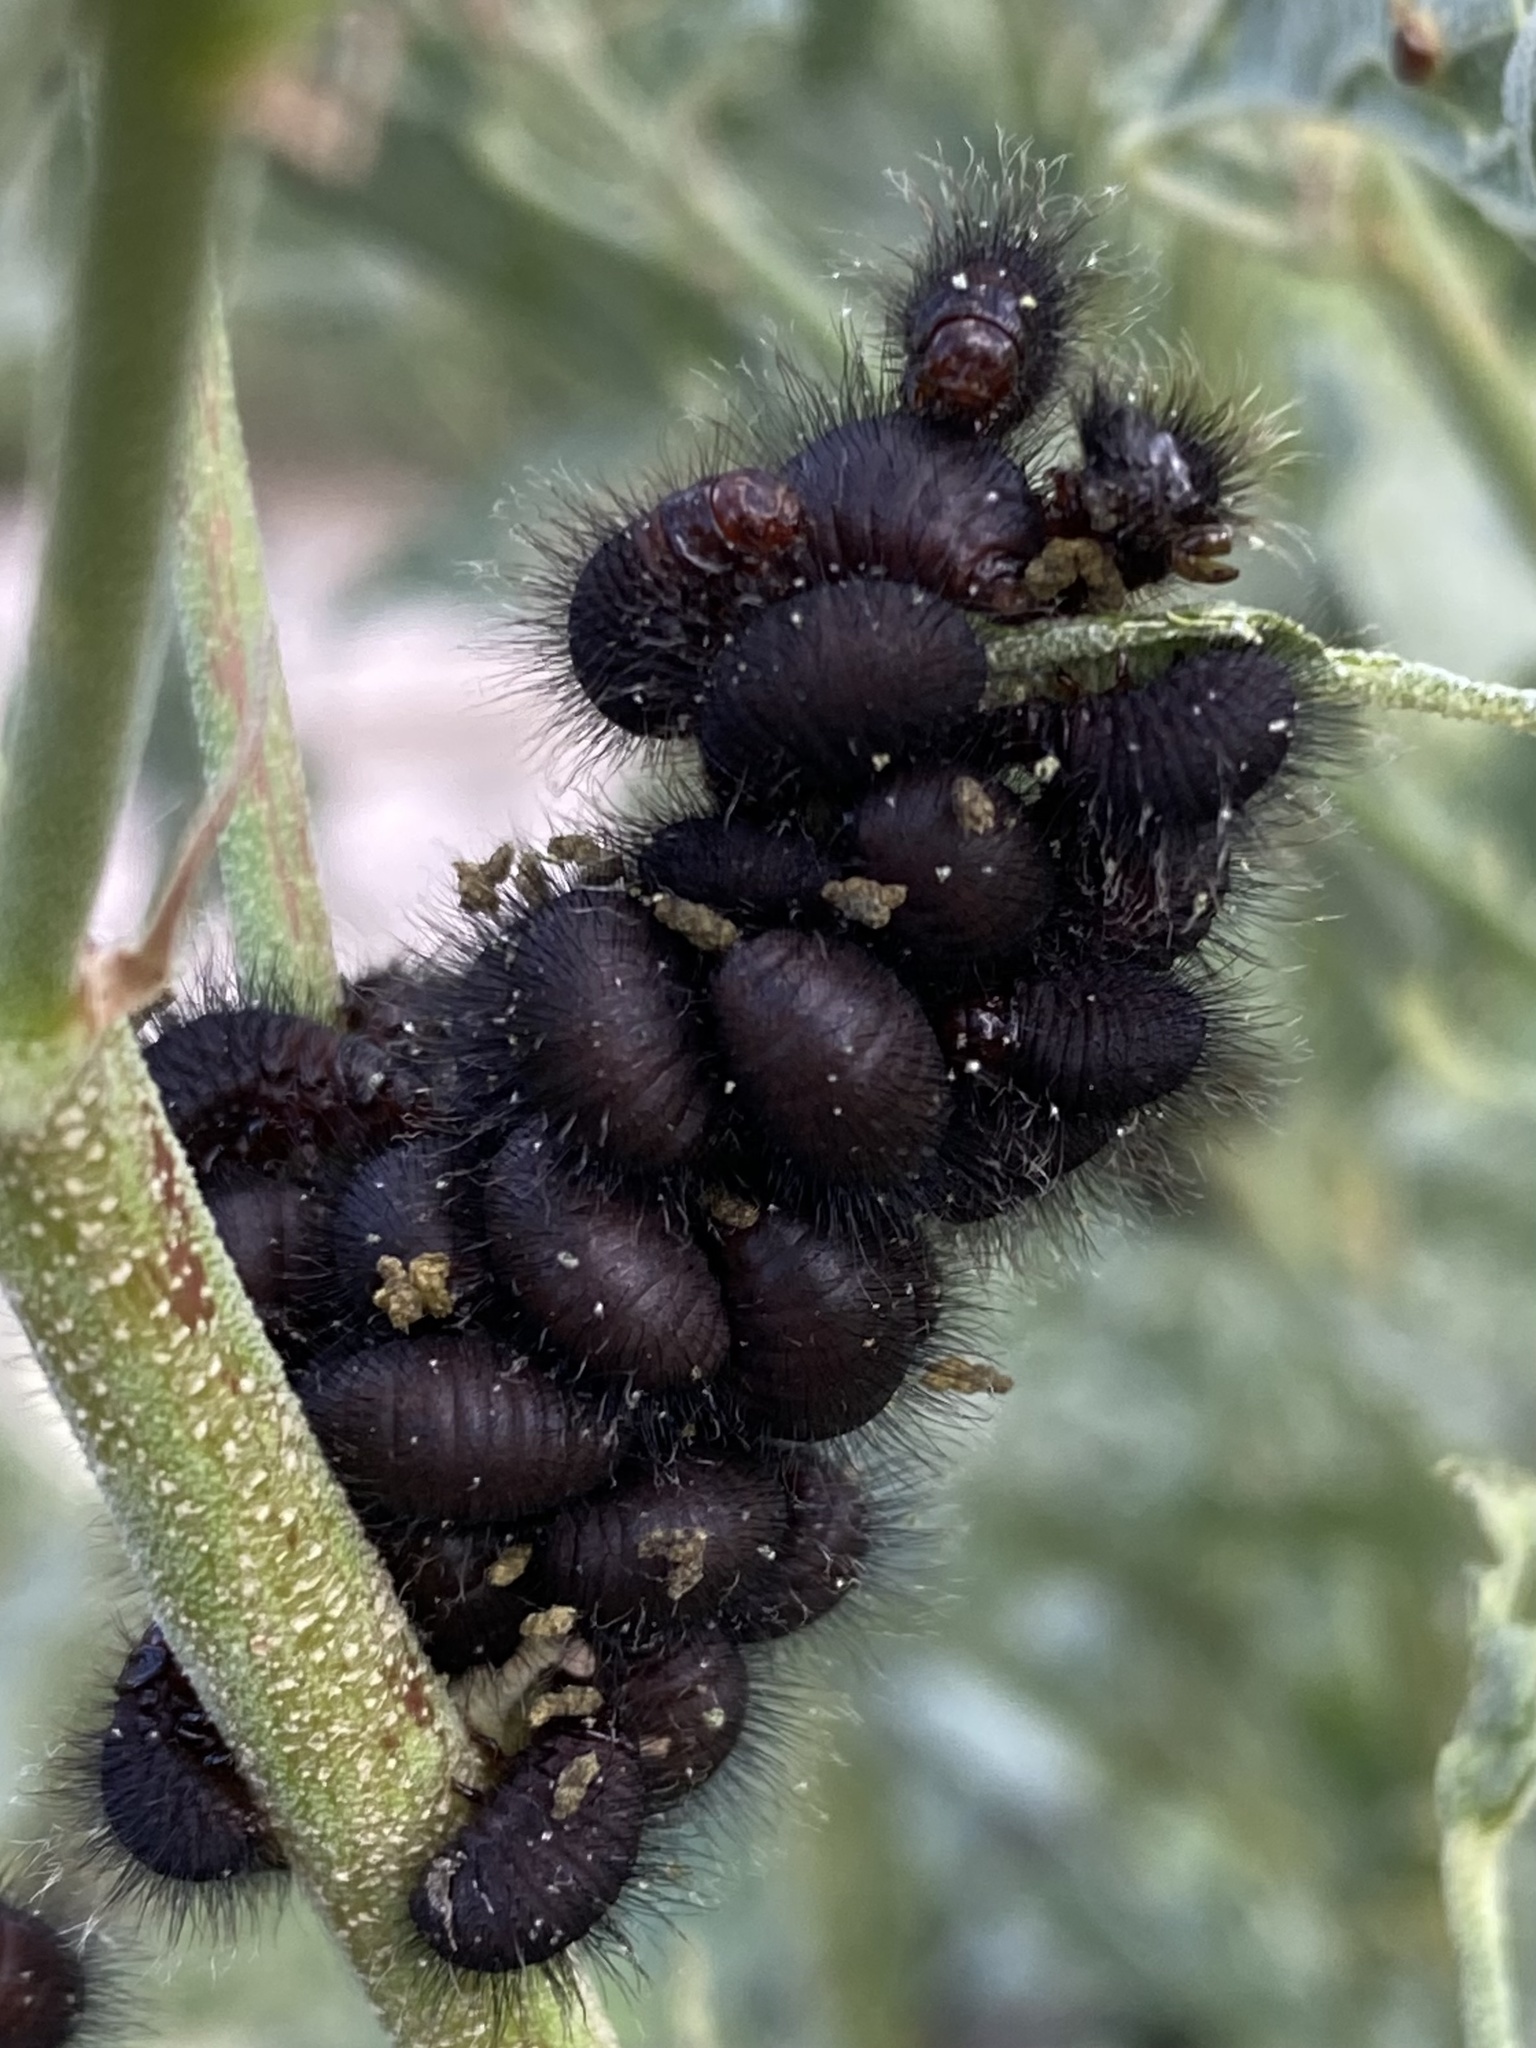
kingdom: Animalia
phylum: Arthropoda
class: Insecta
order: Coleoptera
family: Chrysomelidae
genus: Calligrapha
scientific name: Calligrapha serpentina
